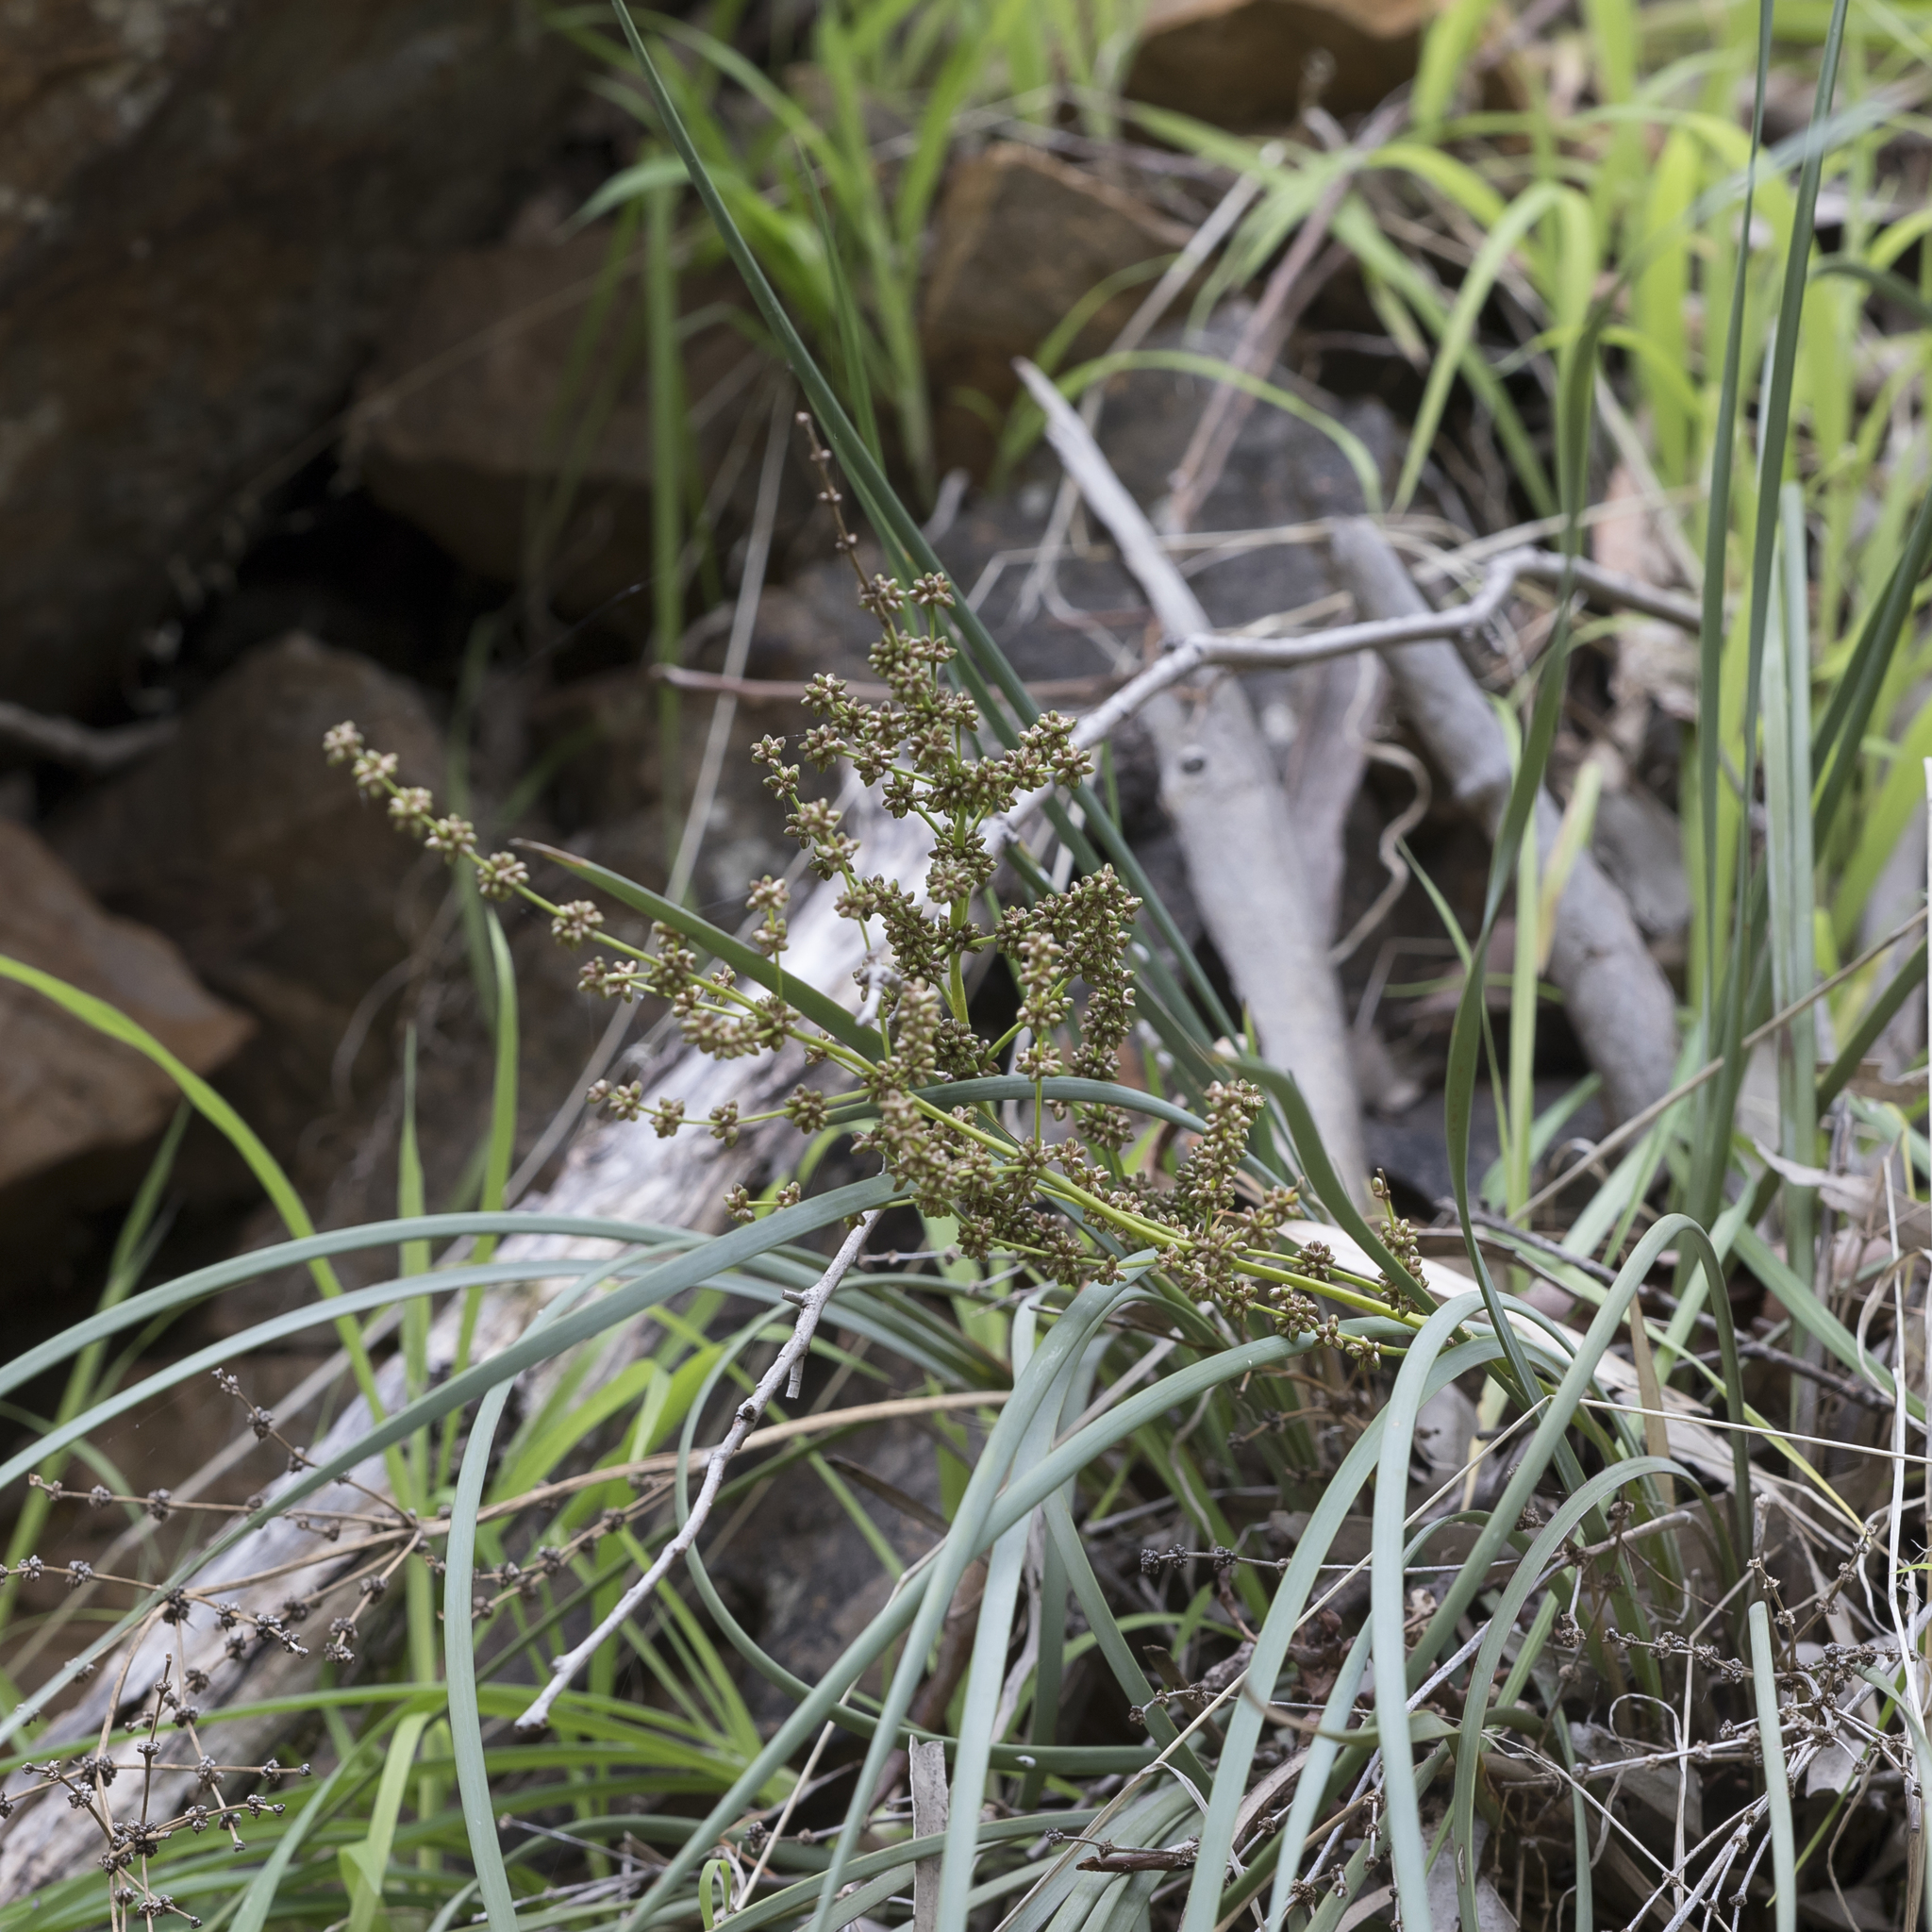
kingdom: Plantae
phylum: Tracheophyta
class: Liliopsida
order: Asparagales
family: Asparagaceae
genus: Lomandra
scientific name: Lomandra multiflora
